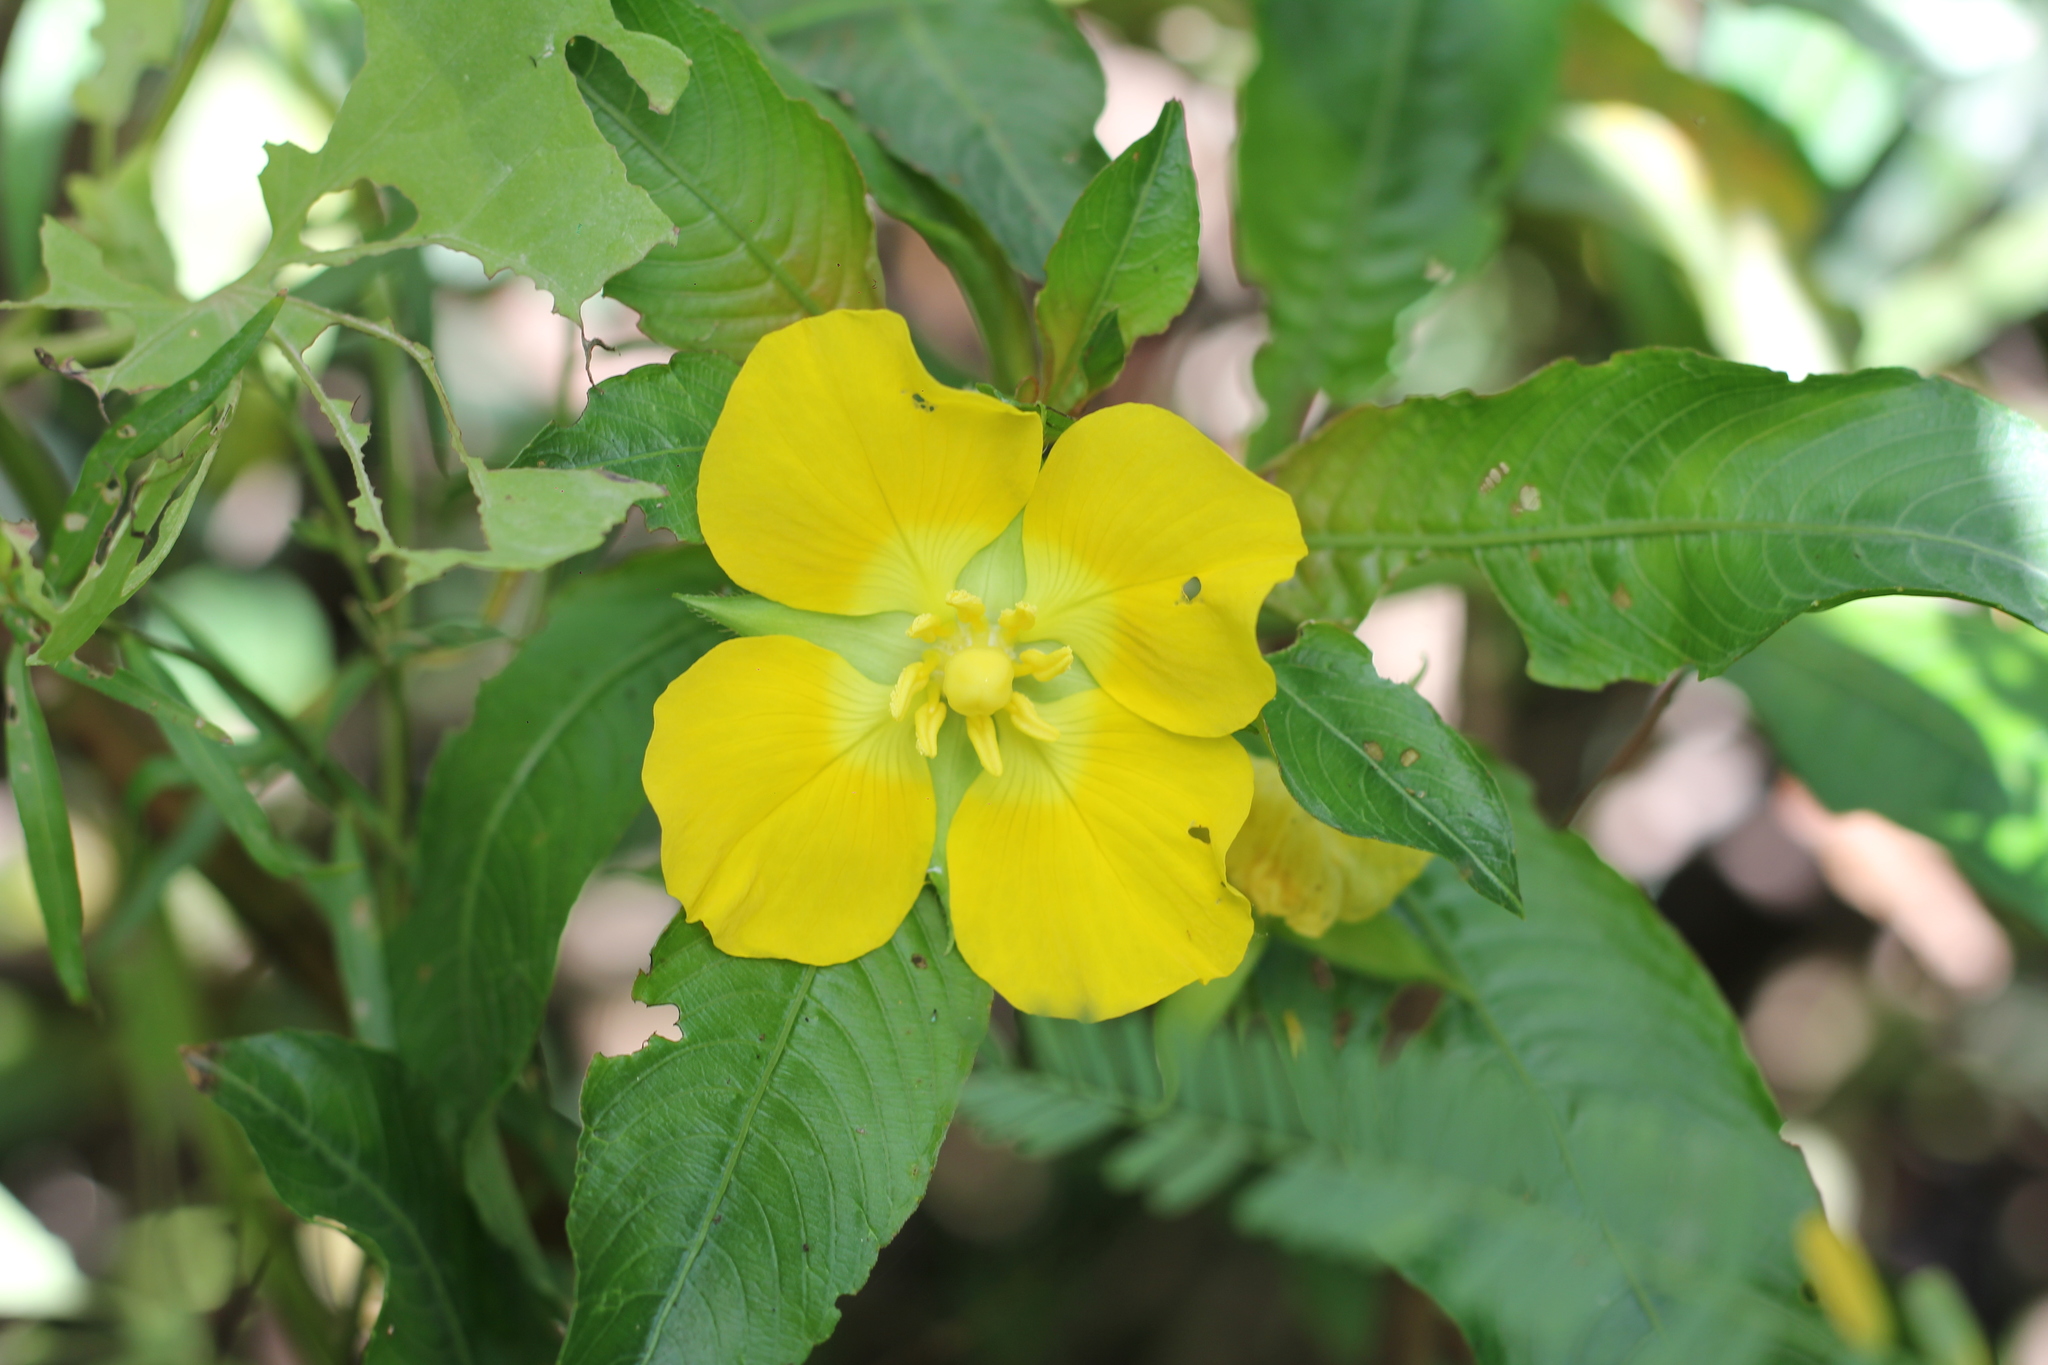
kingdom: Plantae
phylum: Tracheophyta
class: Magnoliopsida
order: Myrtales
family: Onagraceae
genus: Ludwigia
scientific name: Ludwigia elegans
